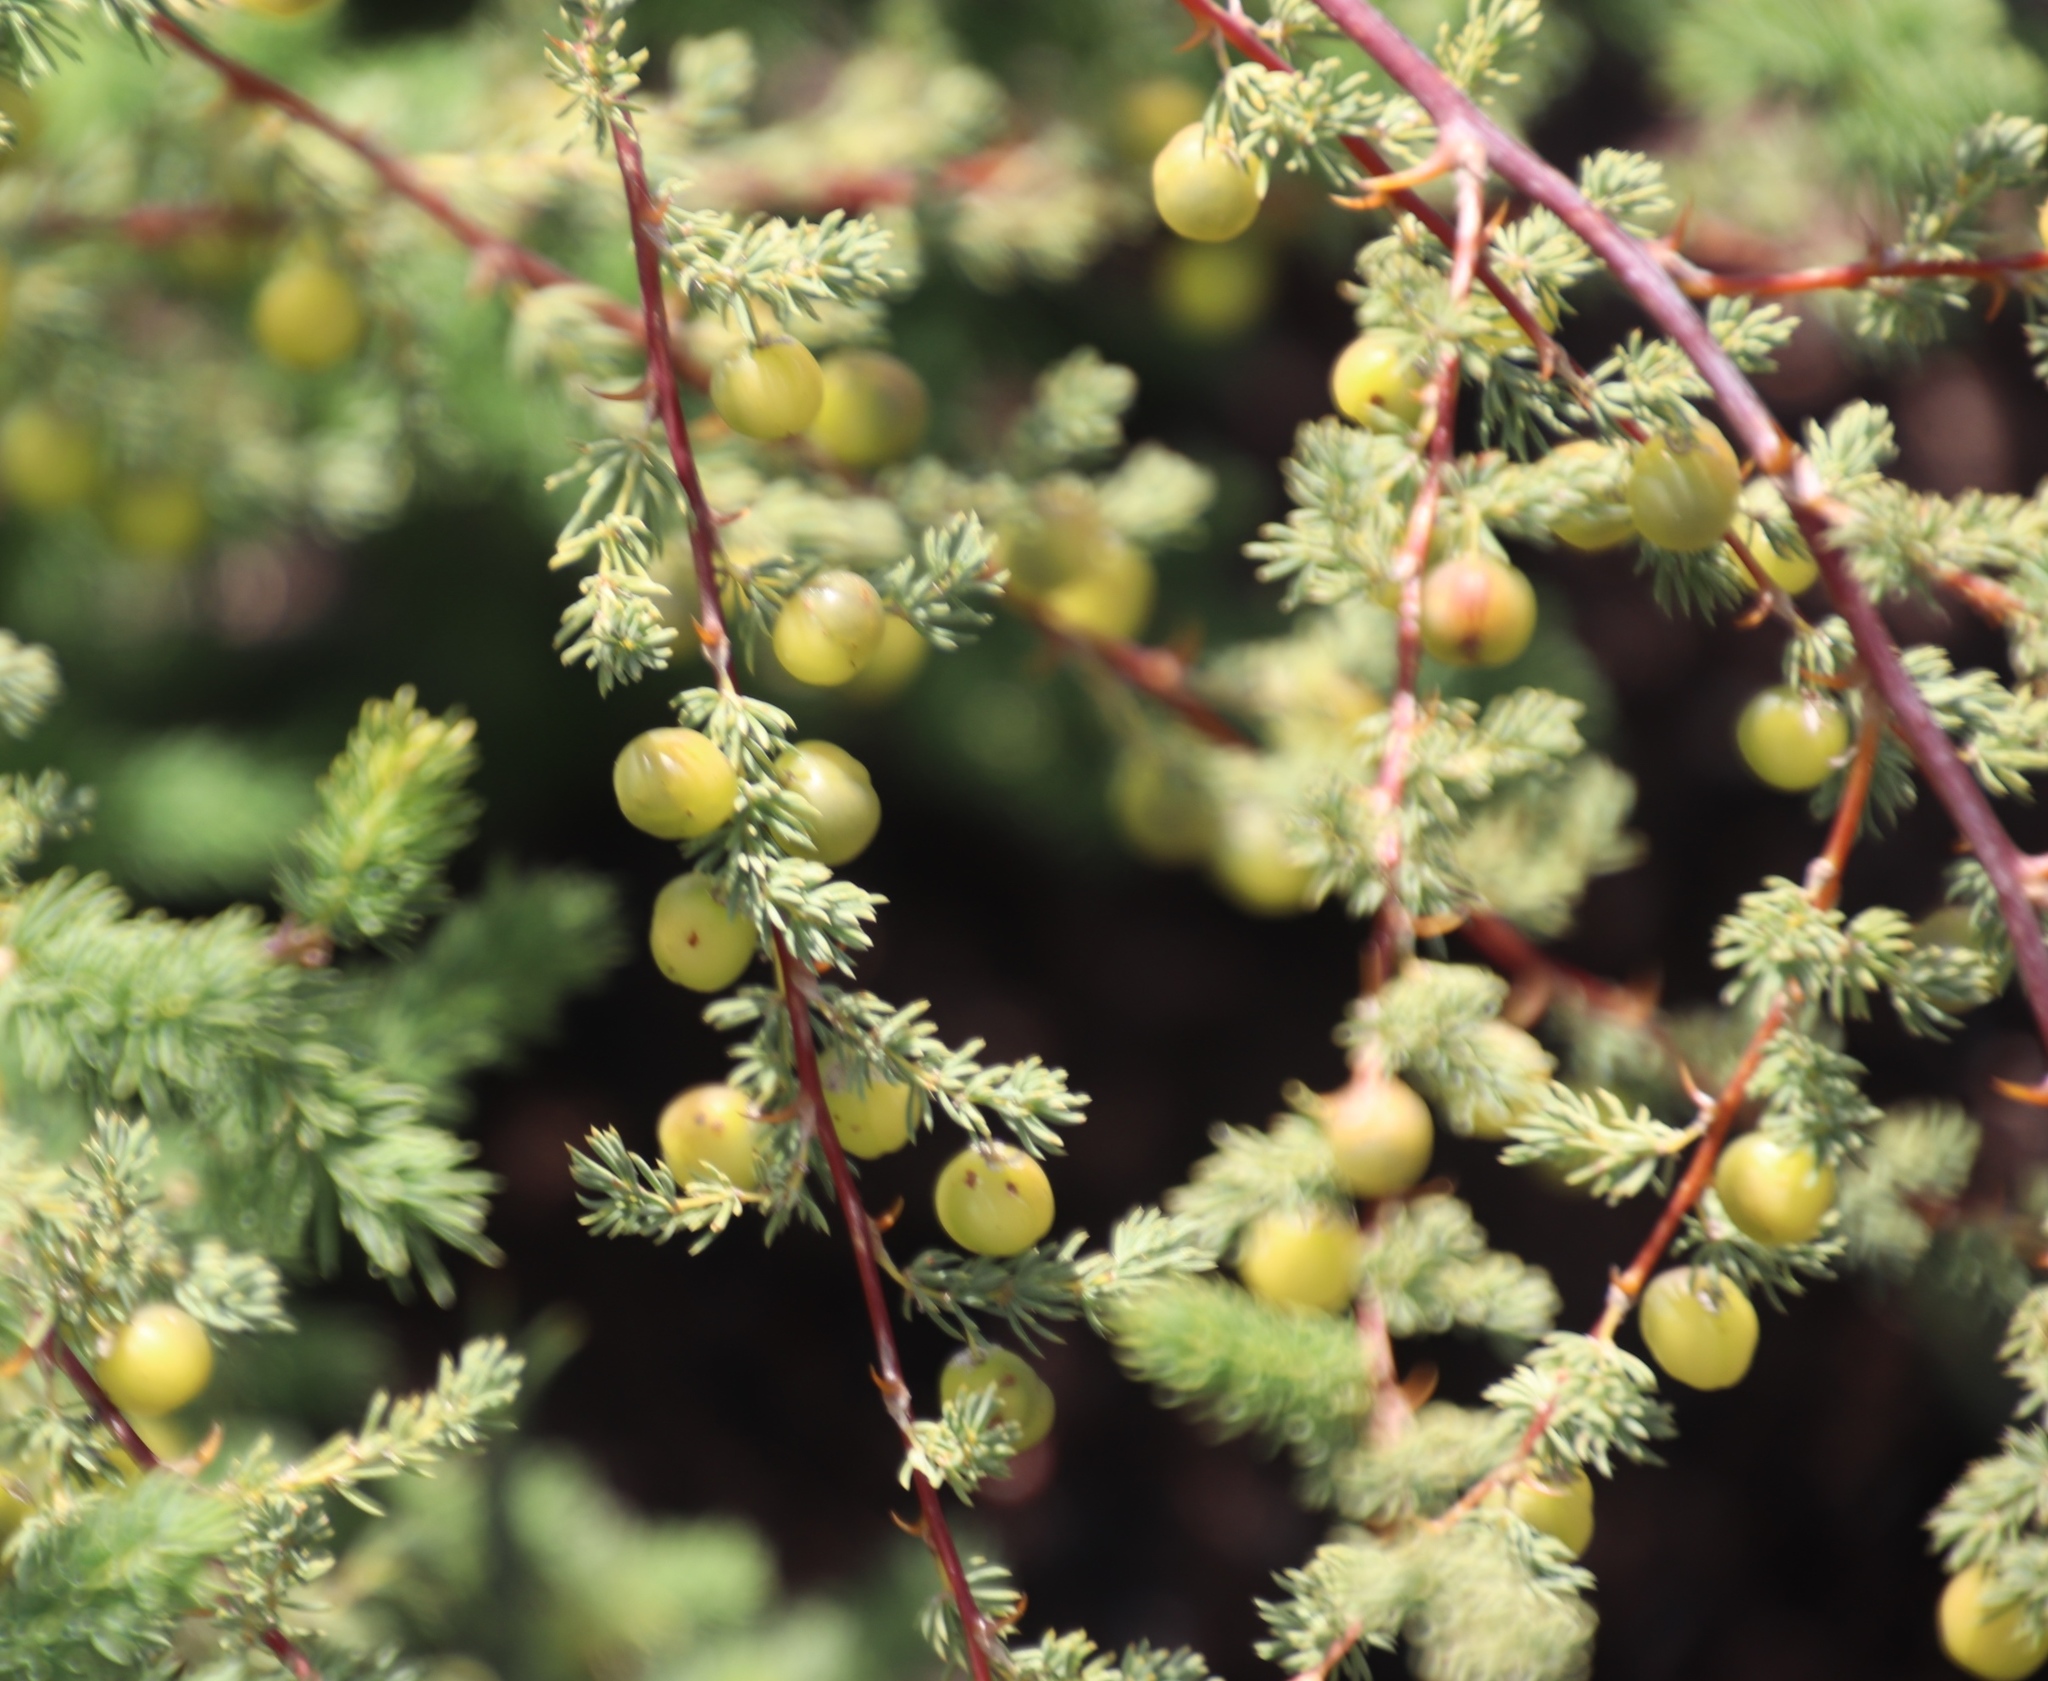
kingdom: Plantae
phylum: Tracheophyta
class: Liliopsida
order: Asparagales
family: Asparagaceae
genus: Asparagus
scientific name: Asparagus rubicundus
